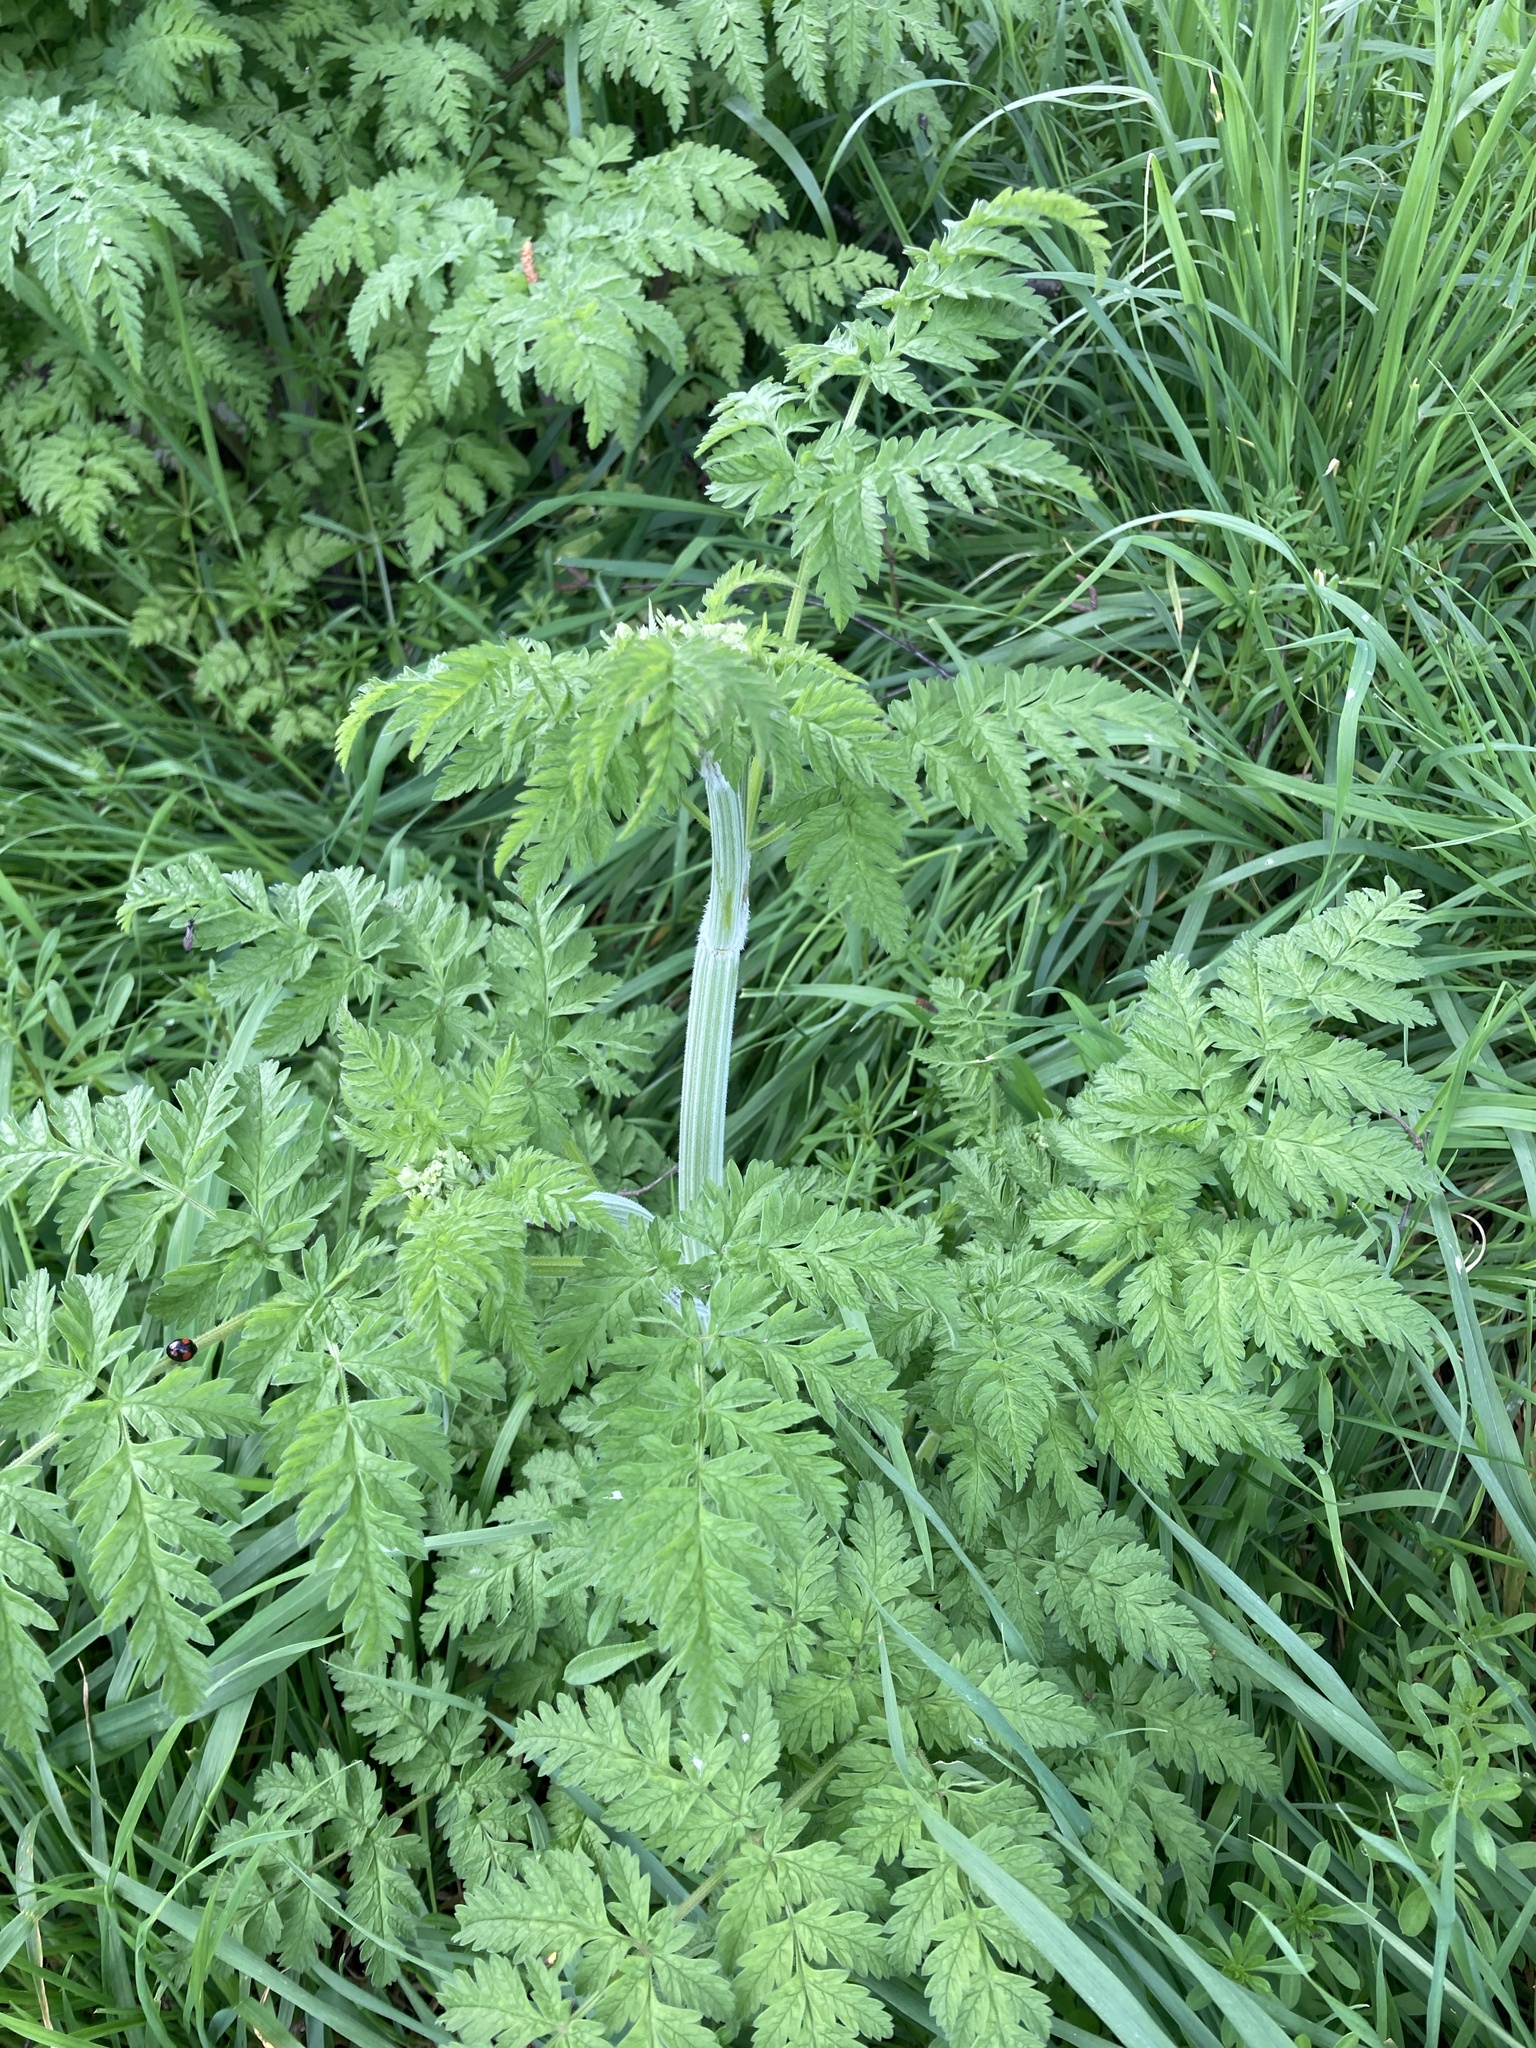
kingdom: Plantae
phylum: Tracheophyta
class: Magnoliopsida
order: Apiales
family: Apiaceae
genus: Anthriscus
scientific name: Anthriscus sylvestris
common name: Cow parsley
